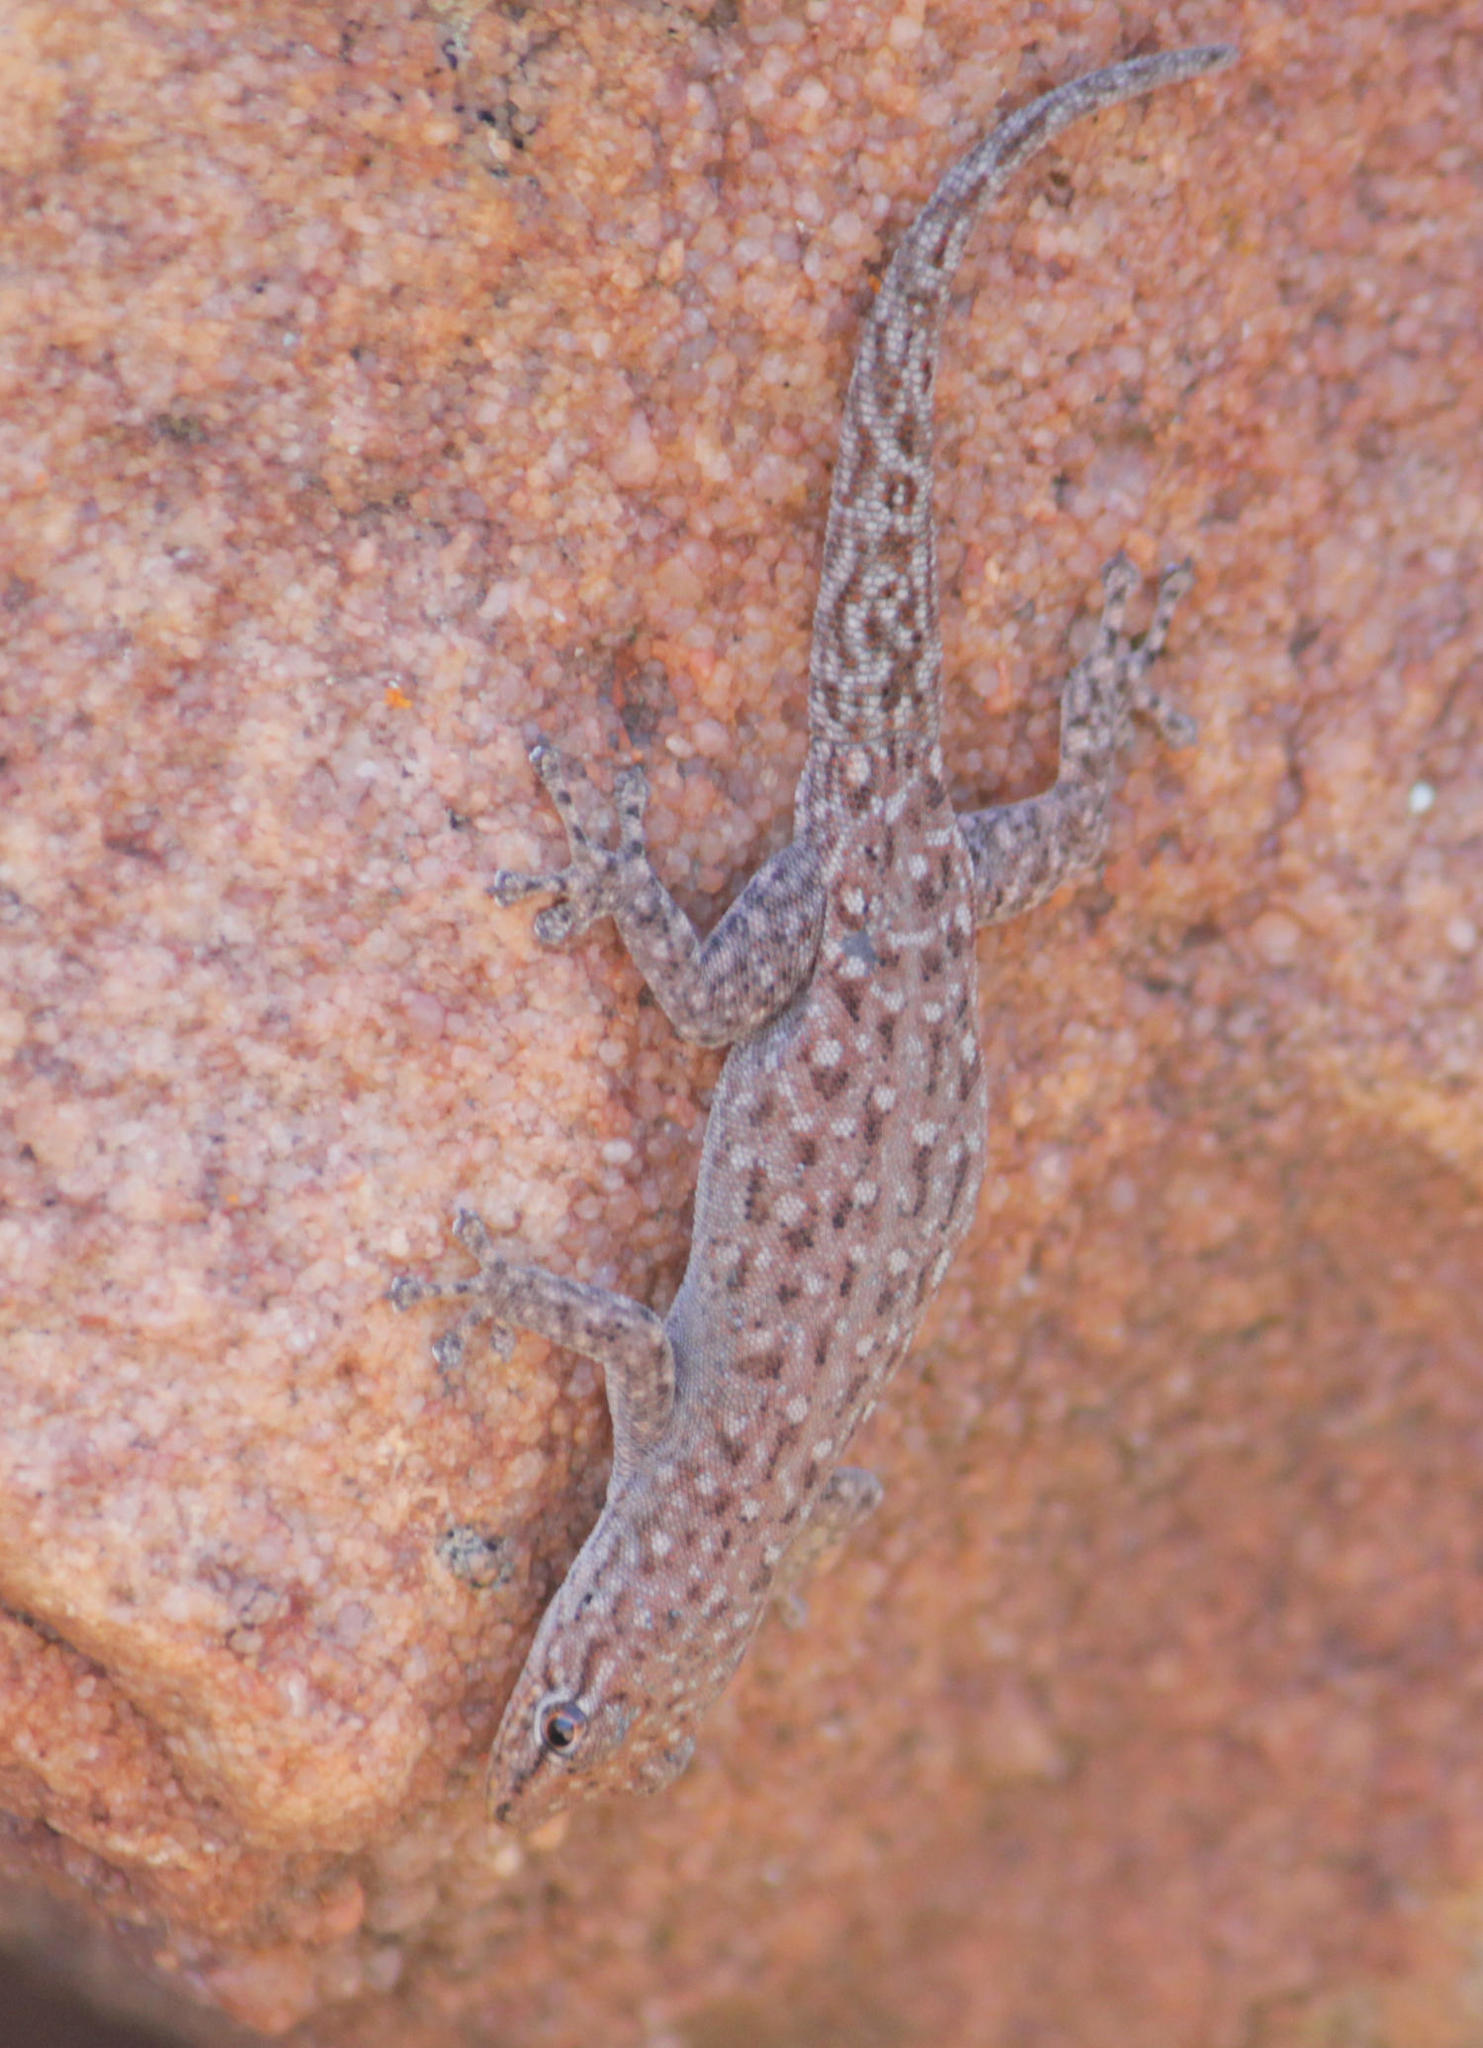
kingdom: Animalia
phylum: Chordata
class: Squamata
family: Gekkonidae
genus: Lygodactylus
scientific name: Lygodactylus soutpansbergensis
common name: Soutpansberg dwarf gecko
